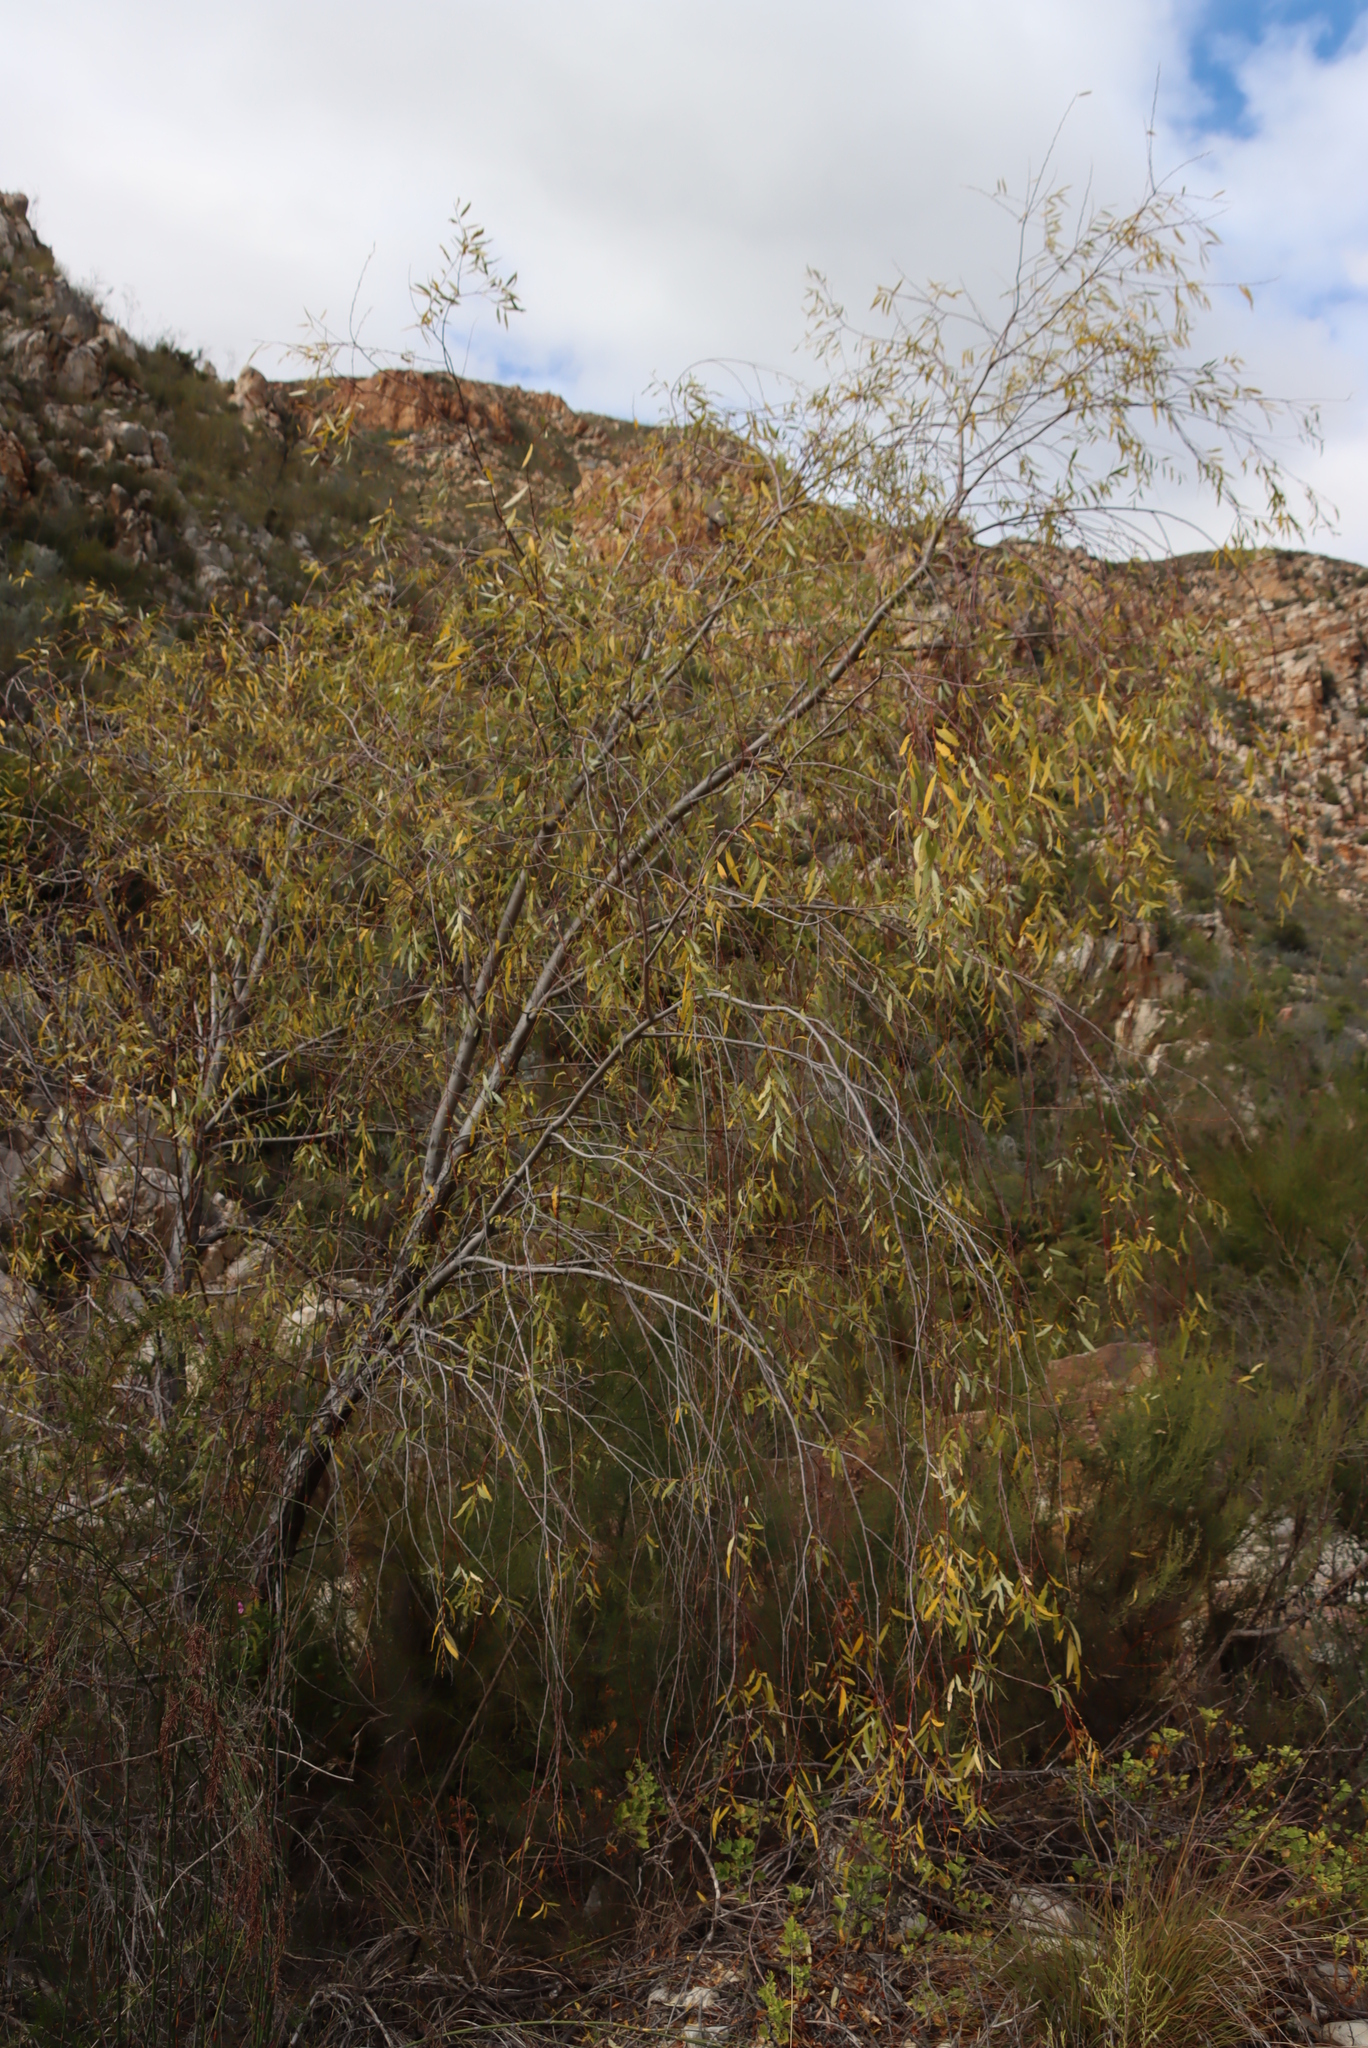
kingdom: Plantae
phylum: Tracheophyta
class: Magnoliopsida
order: Malpighiales
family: Salicaceae
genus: Salix
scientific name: Salix mucronata
